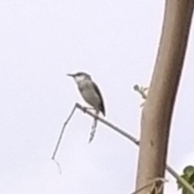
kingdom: Animalia
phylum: Chordata
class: Aves
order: Passeriformes
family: Cisticolidae
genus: Prinia
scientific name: Prinia hodgsonii
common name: Grey-breasted prinia
